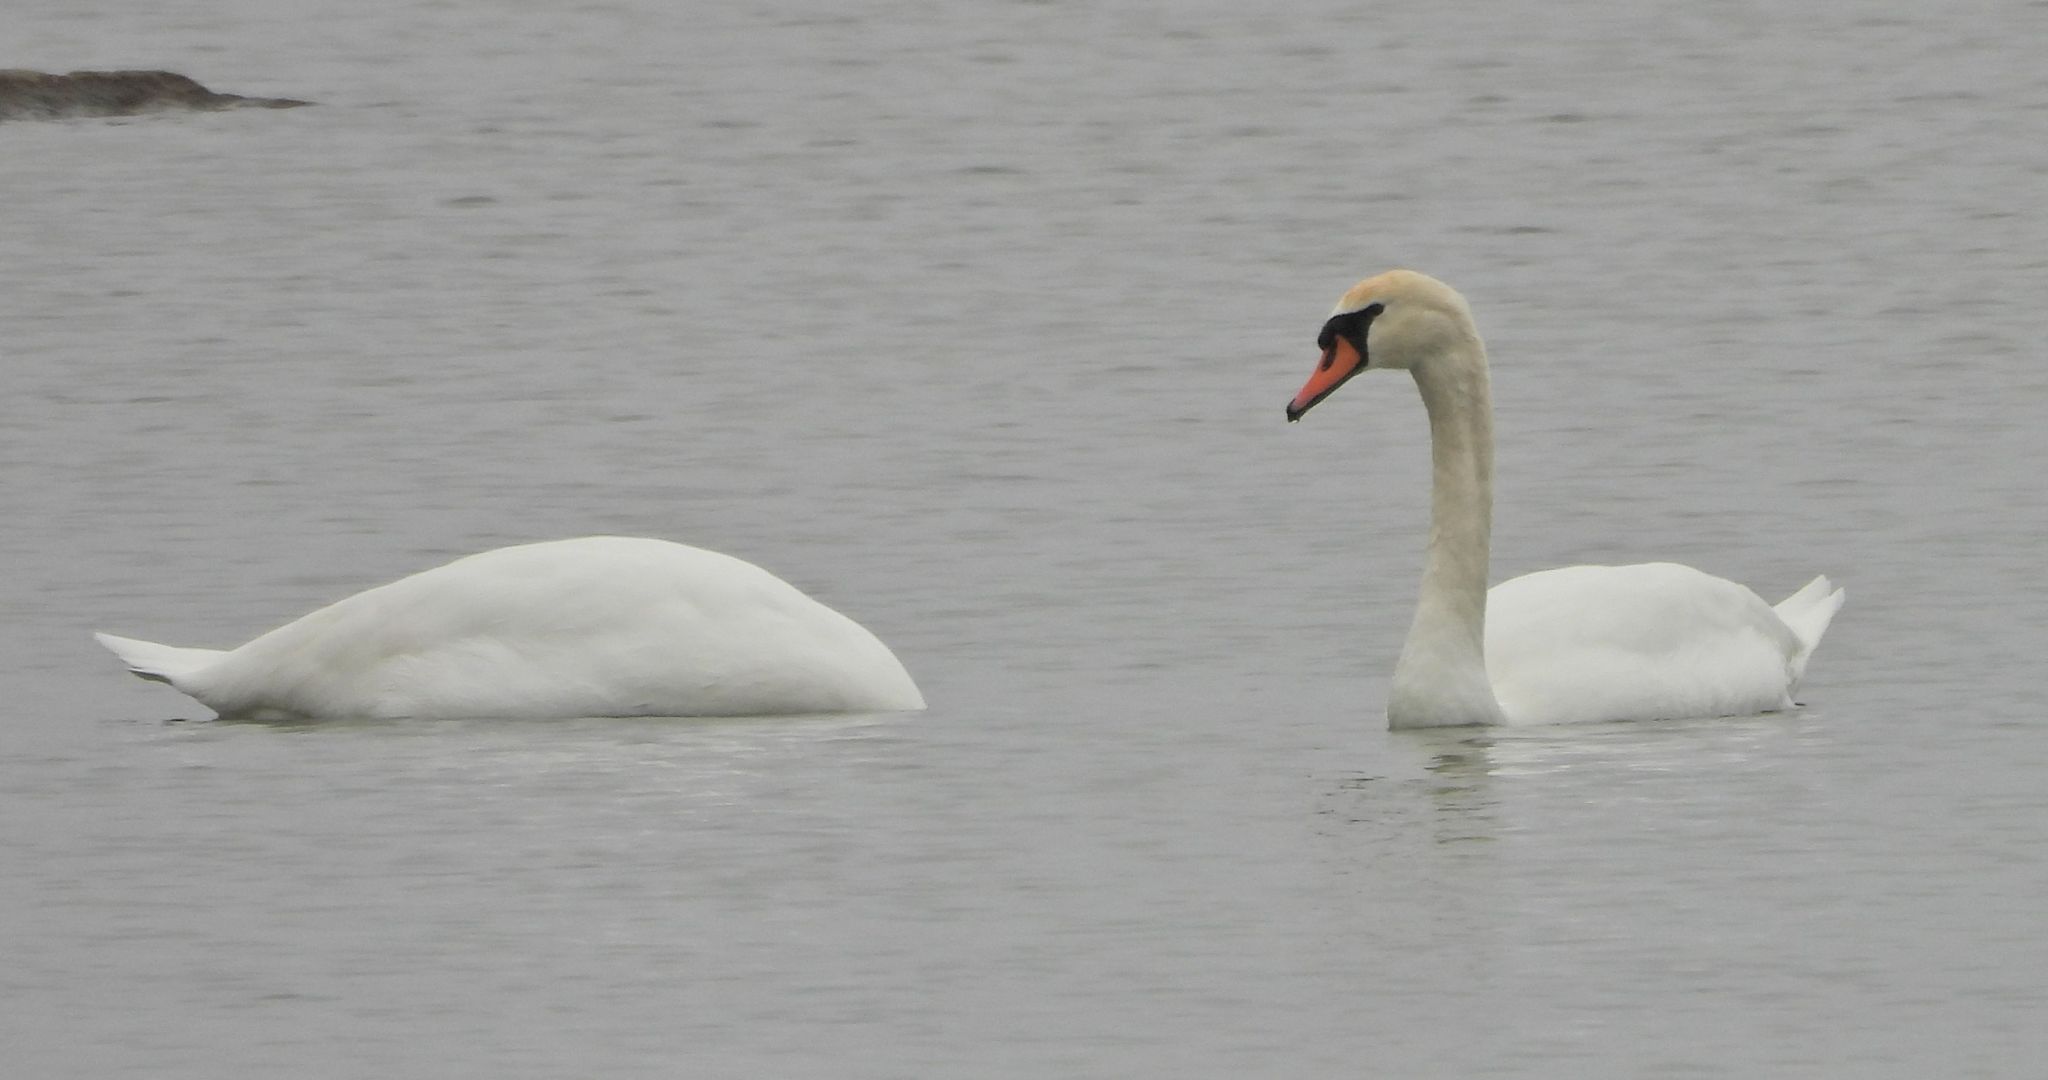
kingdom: Animalia
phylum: Chordata
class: Aves
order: Anseriformes
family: Anatidae
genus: Cygnus
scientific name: Cygnus olor
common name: Mute swan
